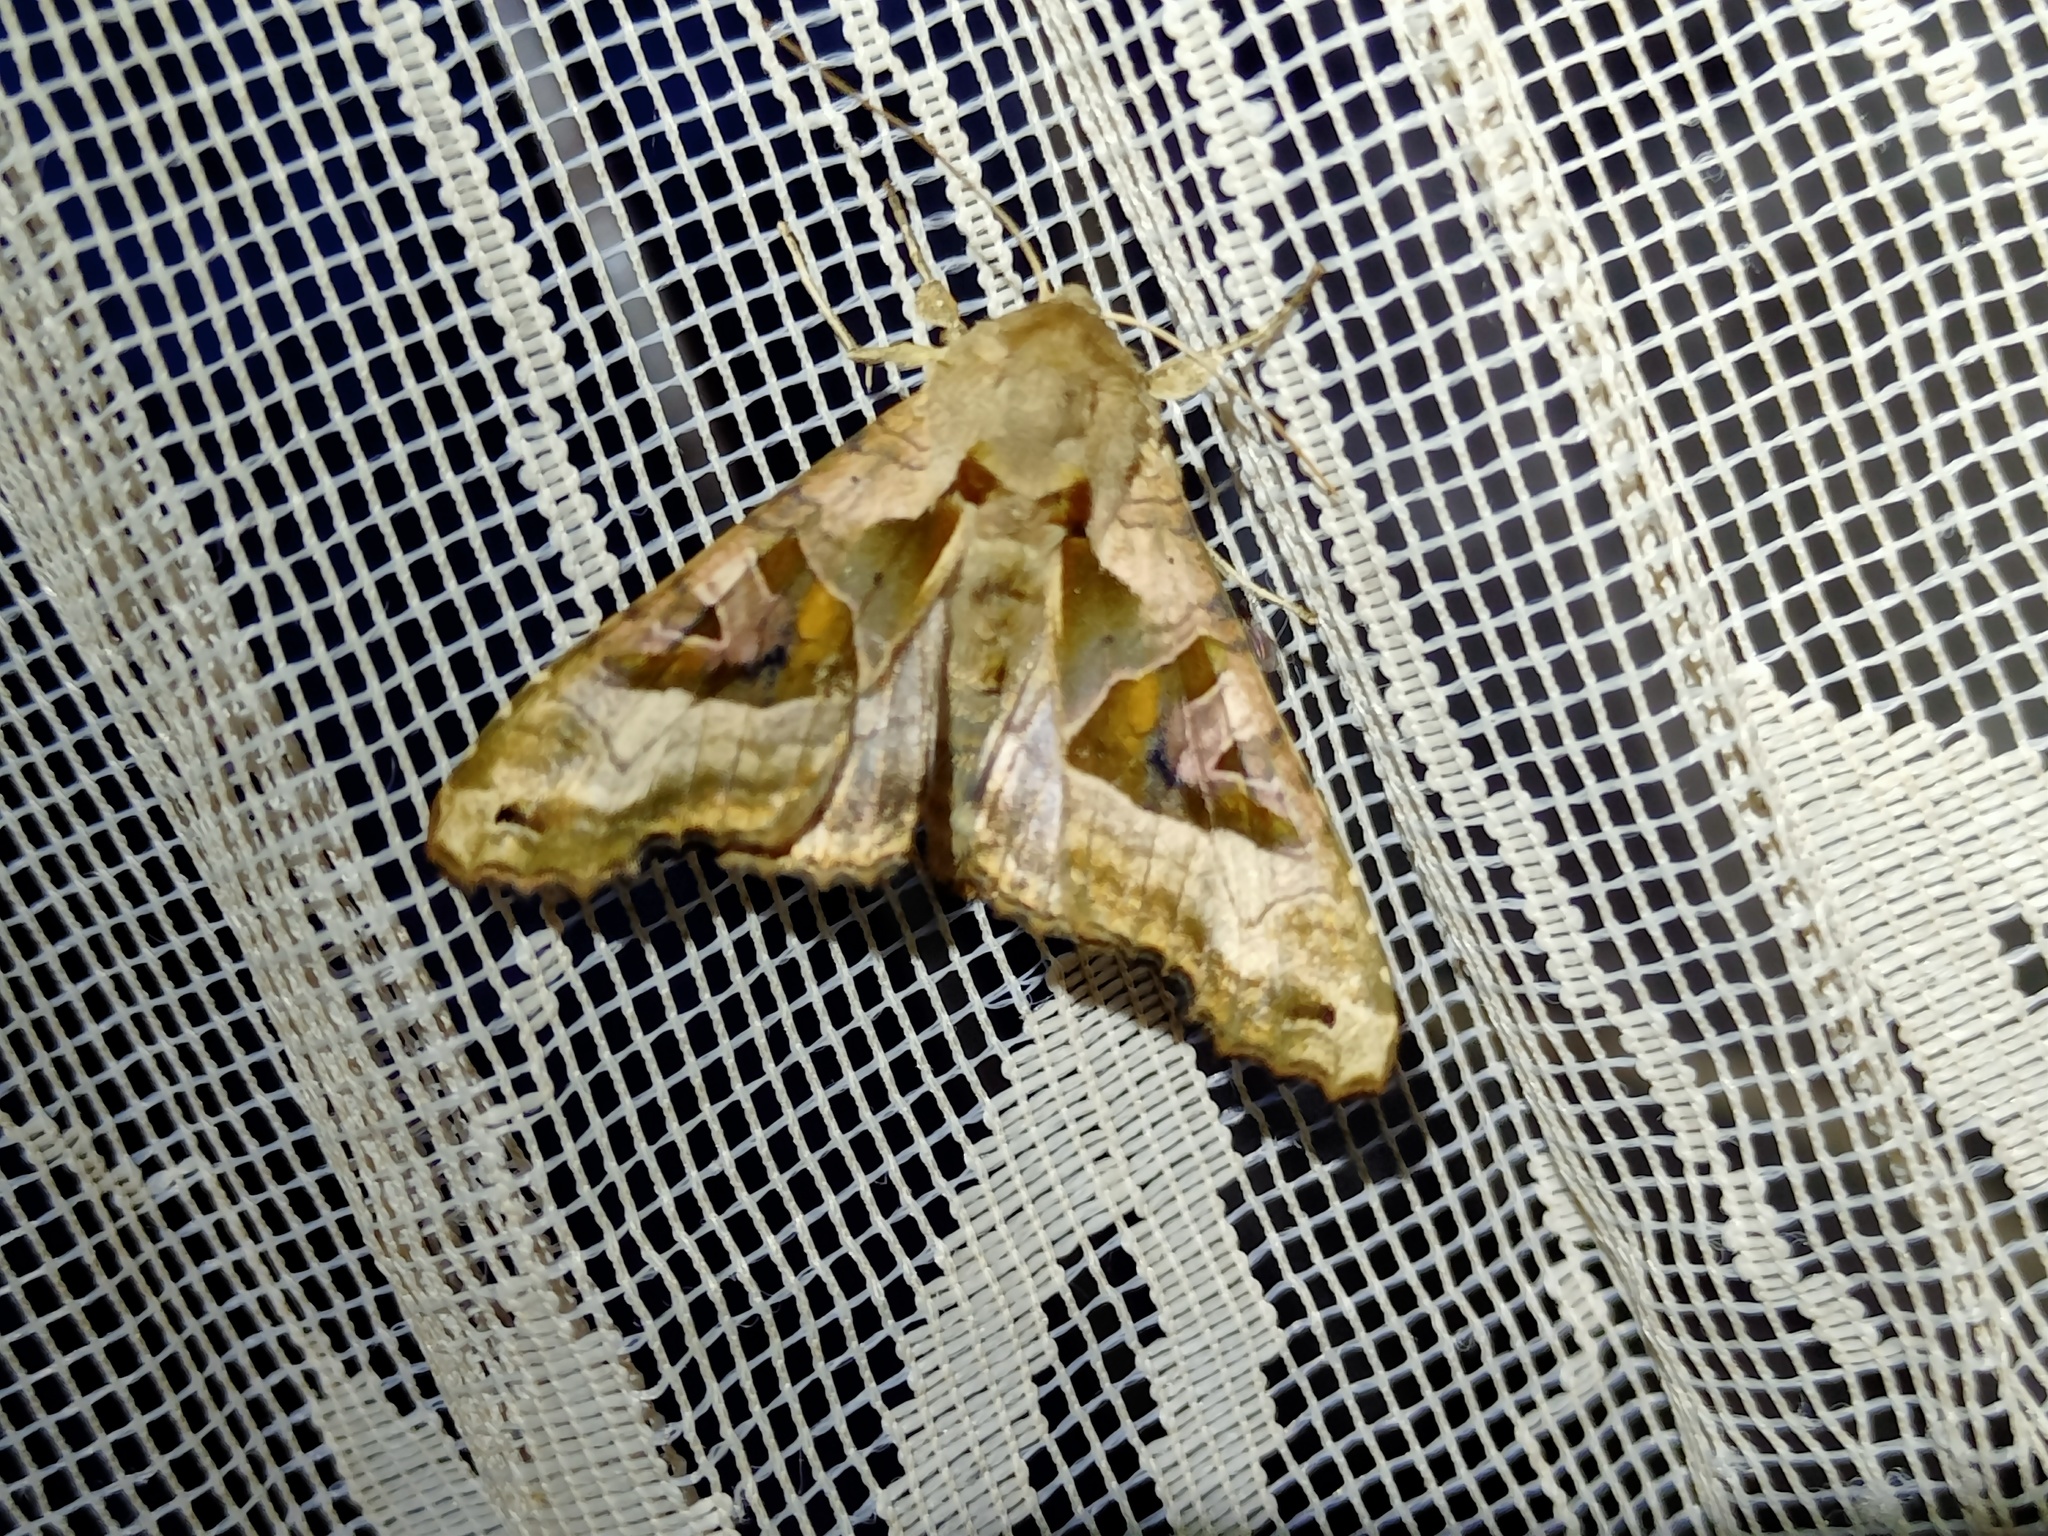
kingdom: Animalia
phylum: Arthropoda
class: Insecta
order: Lepidoptera
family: Noctuidae
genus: Phlogophora
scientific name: Phlogophora meticulosa
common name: Angle shades
